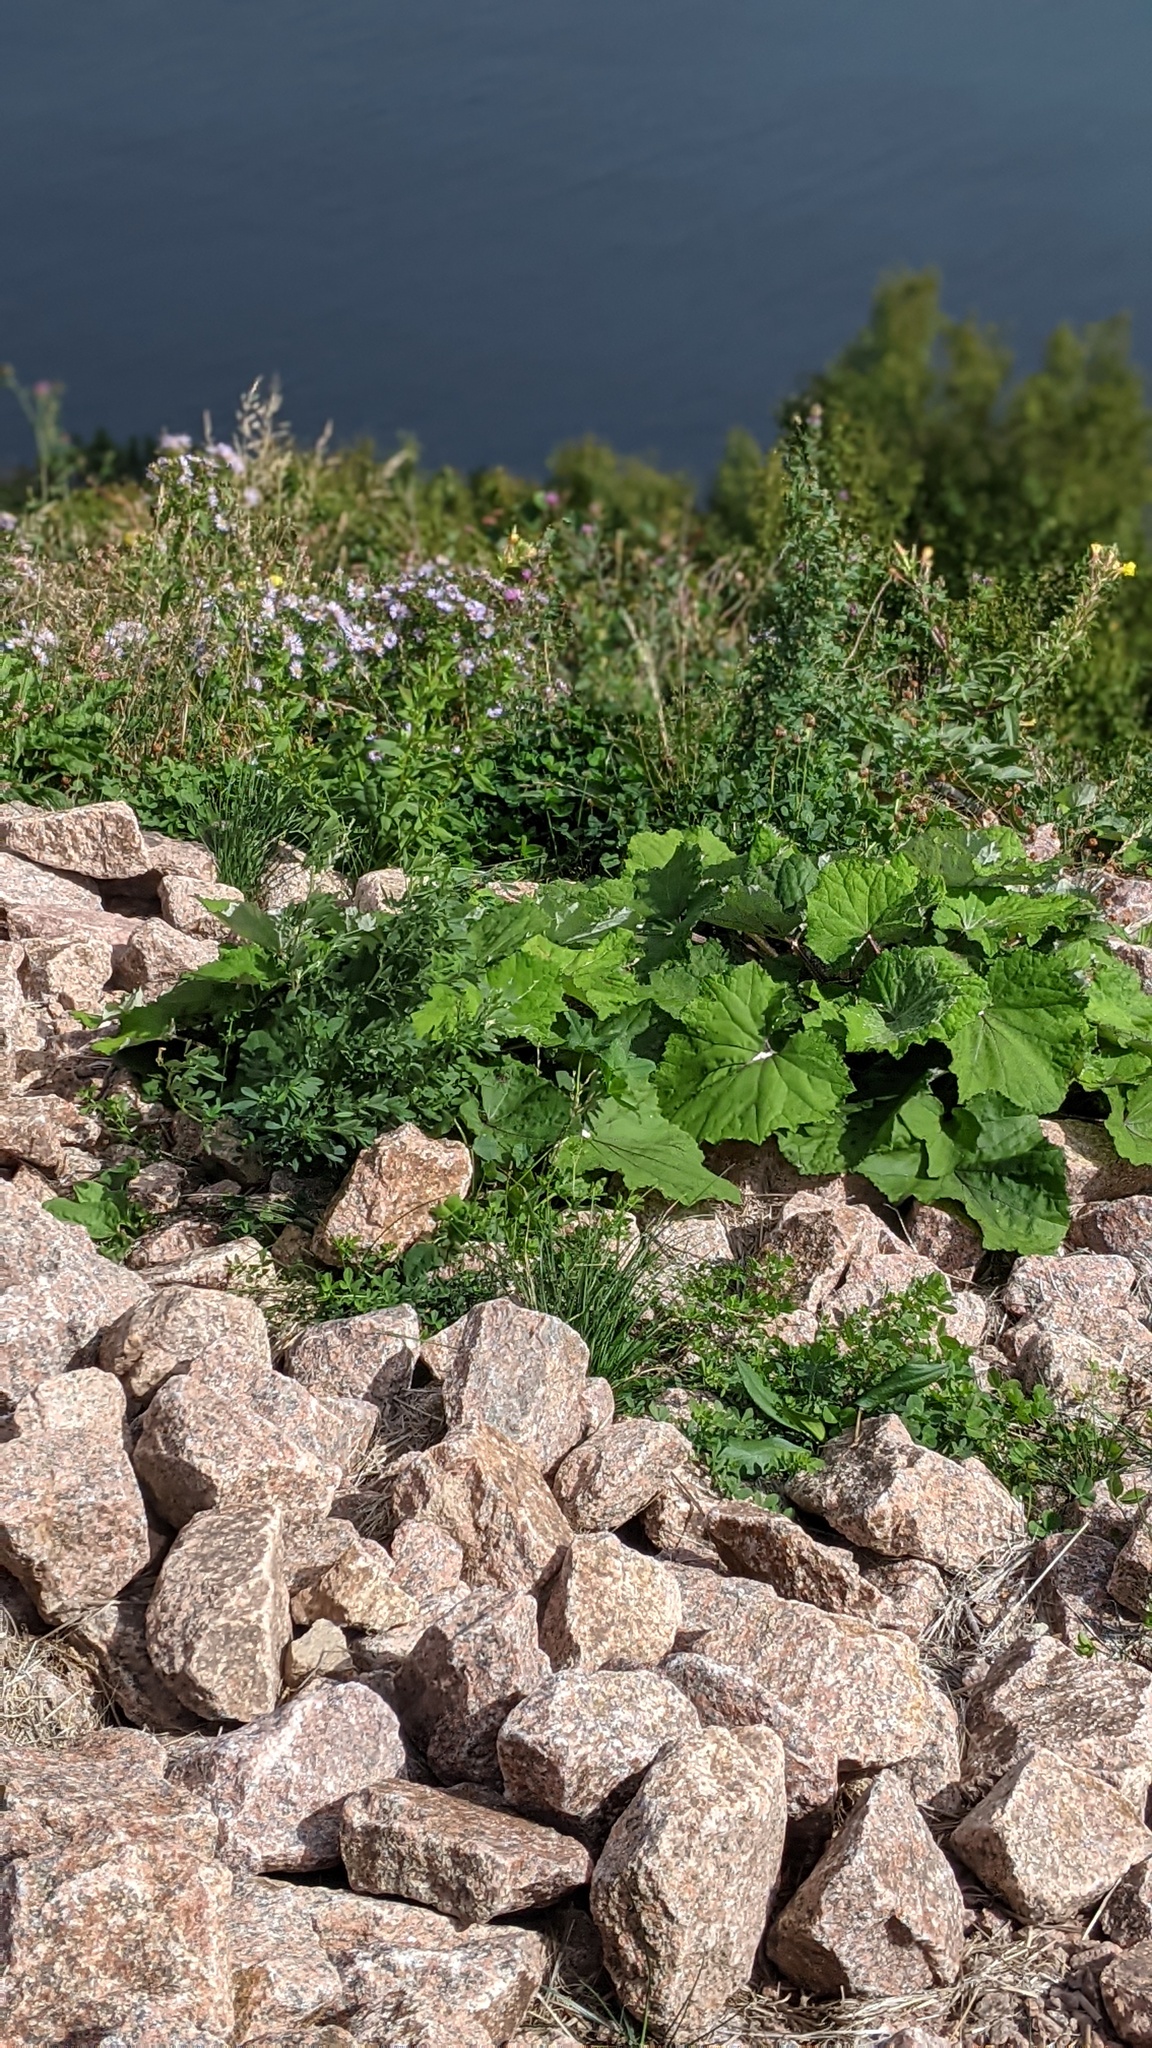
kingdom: Plantae
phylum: Tracheophyta
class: Magnoliopsida
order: Asterales
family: Asteraceae
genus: Tussilago
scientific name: Tussilago farfara
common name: Coltsfoot
